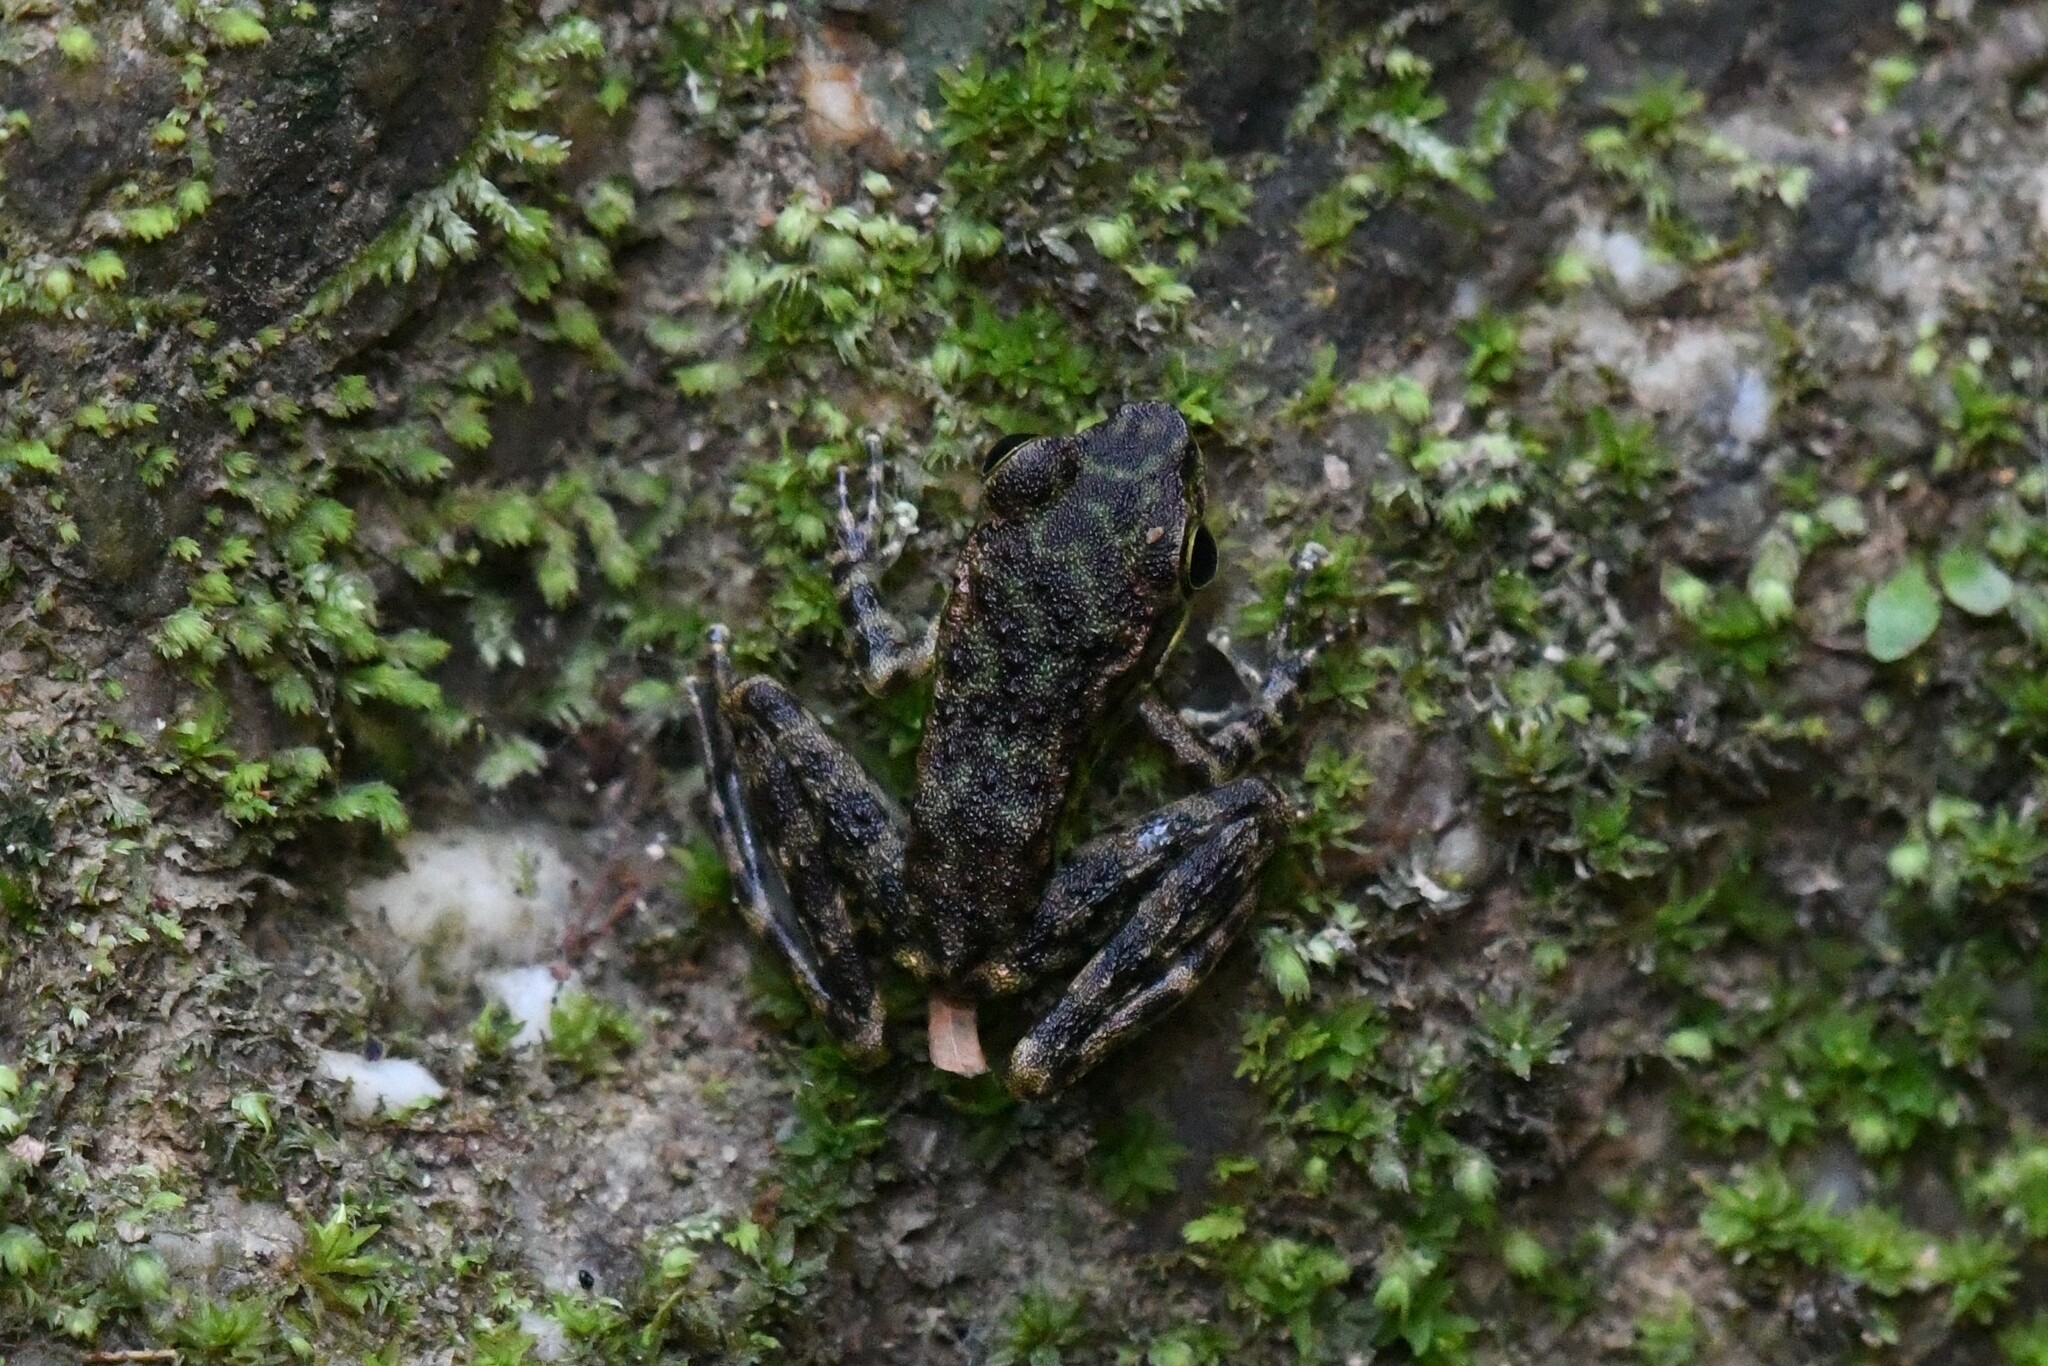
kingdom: Animalia
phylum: Chordata
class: Amphibia
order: Anura
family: Ranidae
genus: Amolops
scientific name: Amolops panhai
